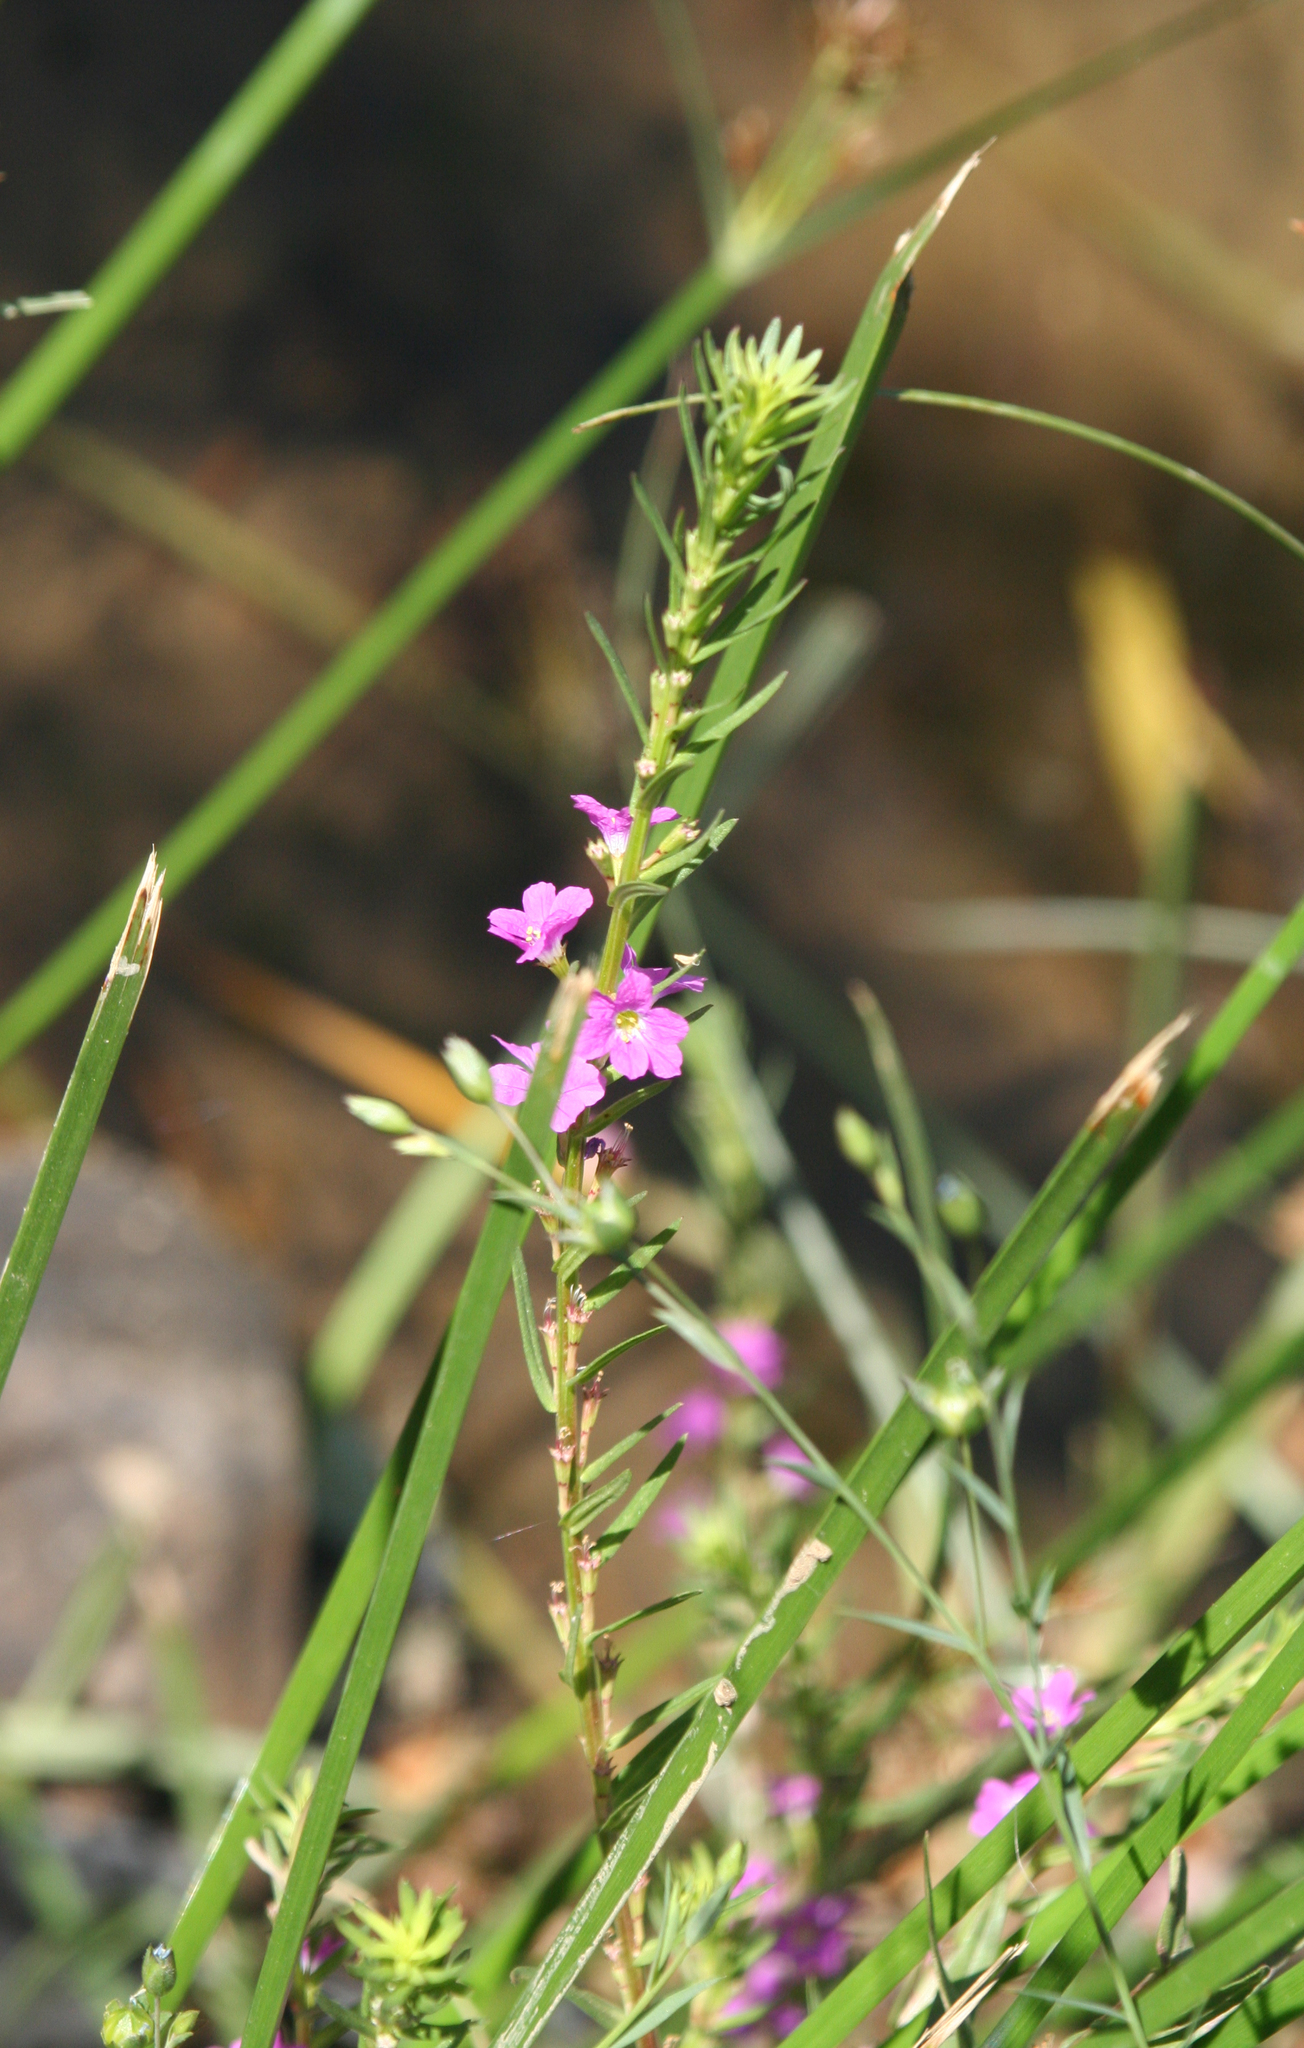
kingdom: Plantae
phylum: Tracheophyta
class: Magnoliopsida
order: Myrtales
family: Lythraceae
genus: Lythrum
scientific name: Lythrum junceum
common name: False grass-poly
